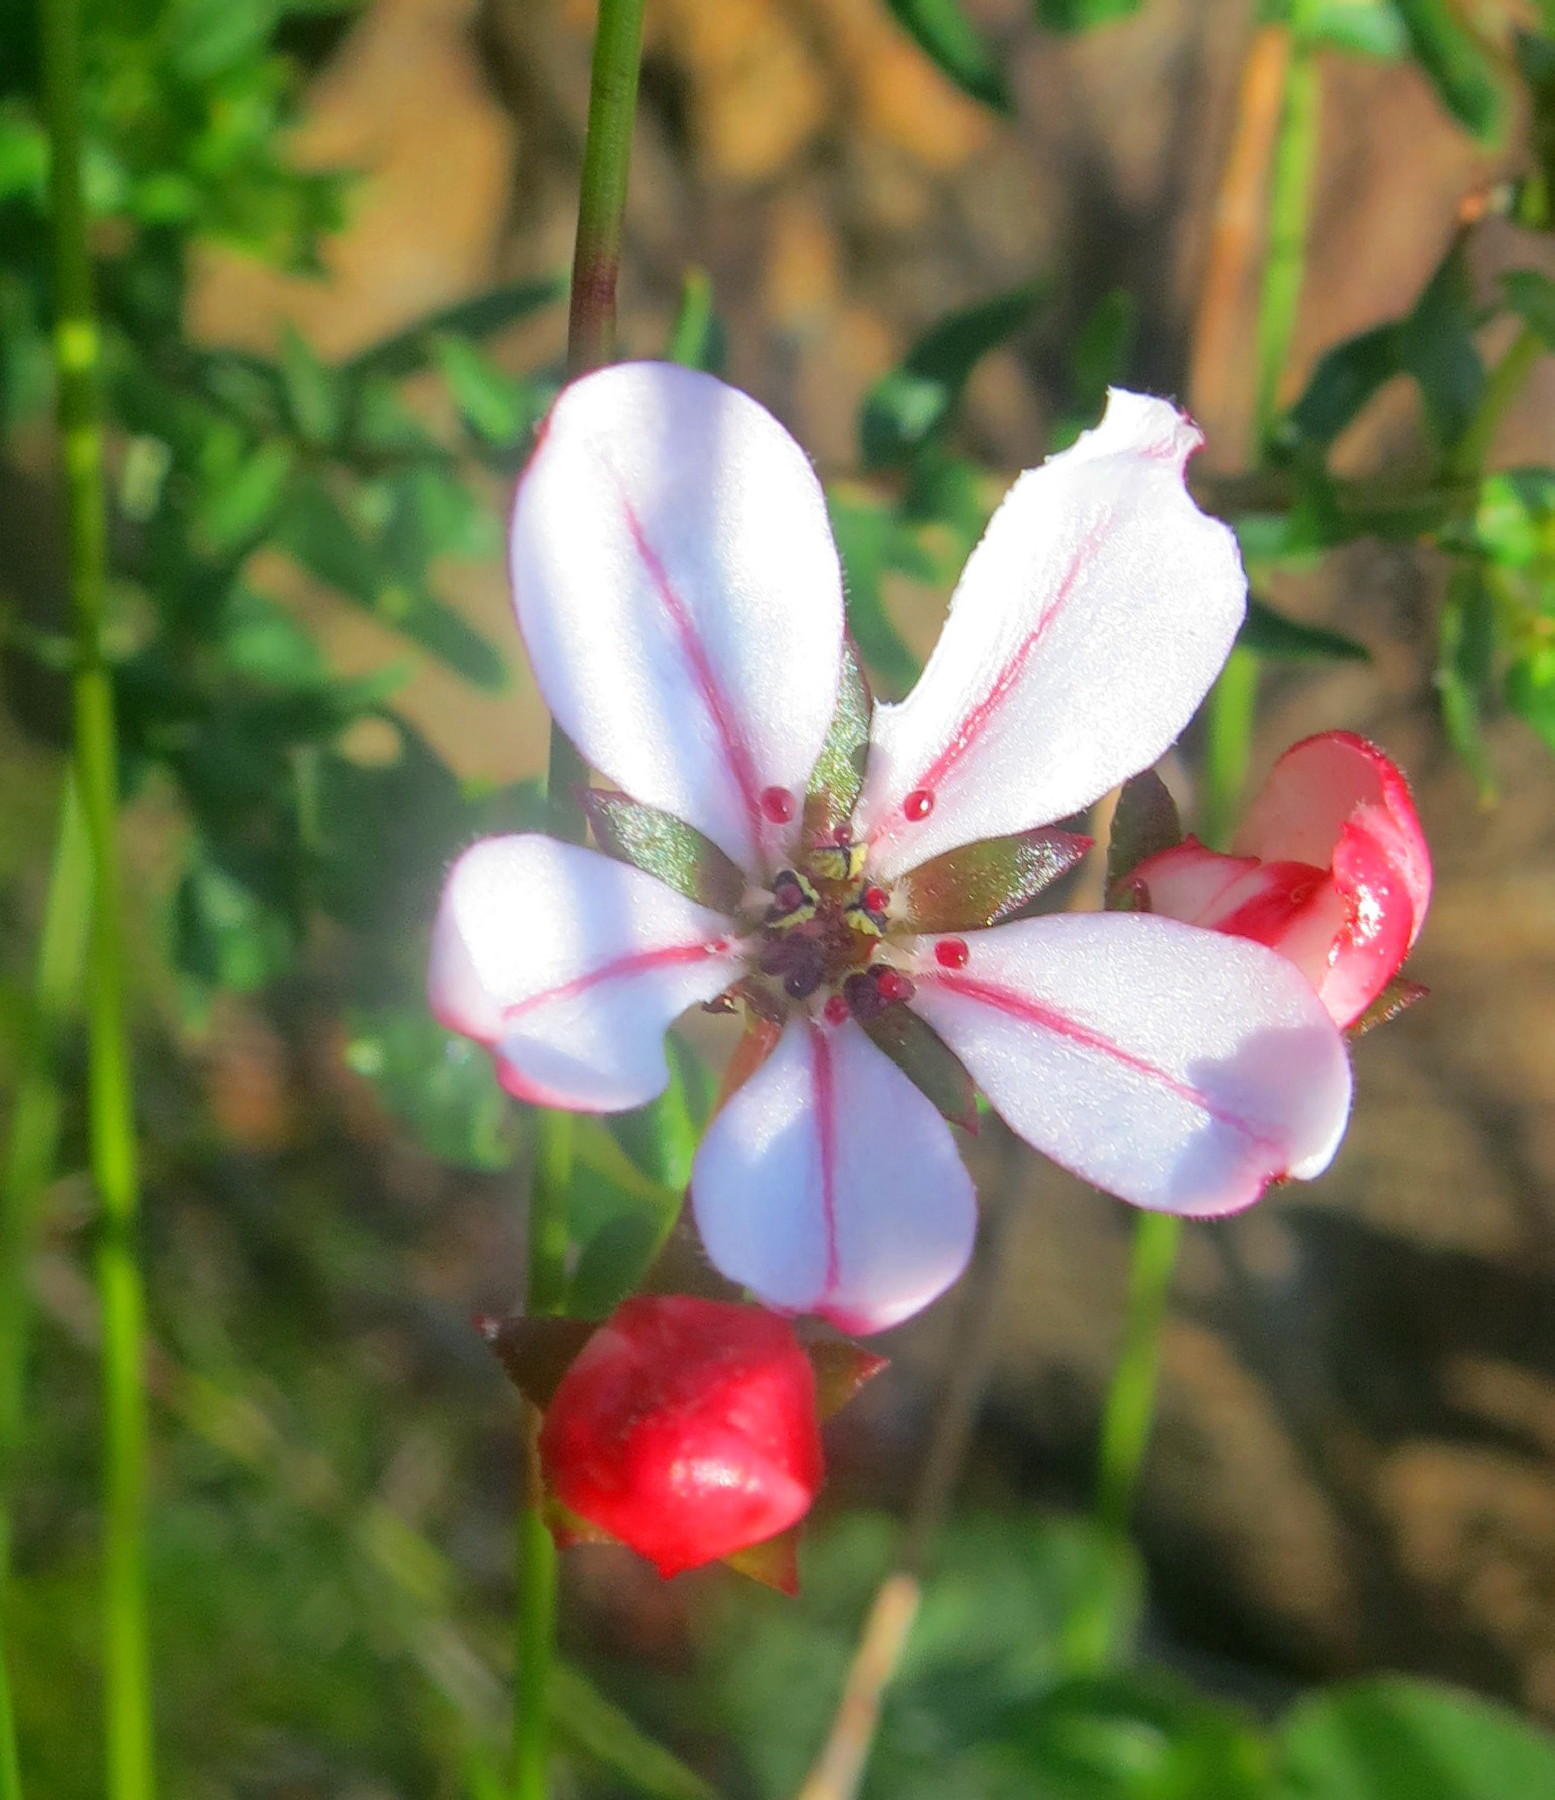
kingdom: Plantae
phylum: Tracheophyta
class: Magnoliopsida
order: Sapindales
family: Rutaceae
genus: Adenandra
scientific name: Adenandra marginata
